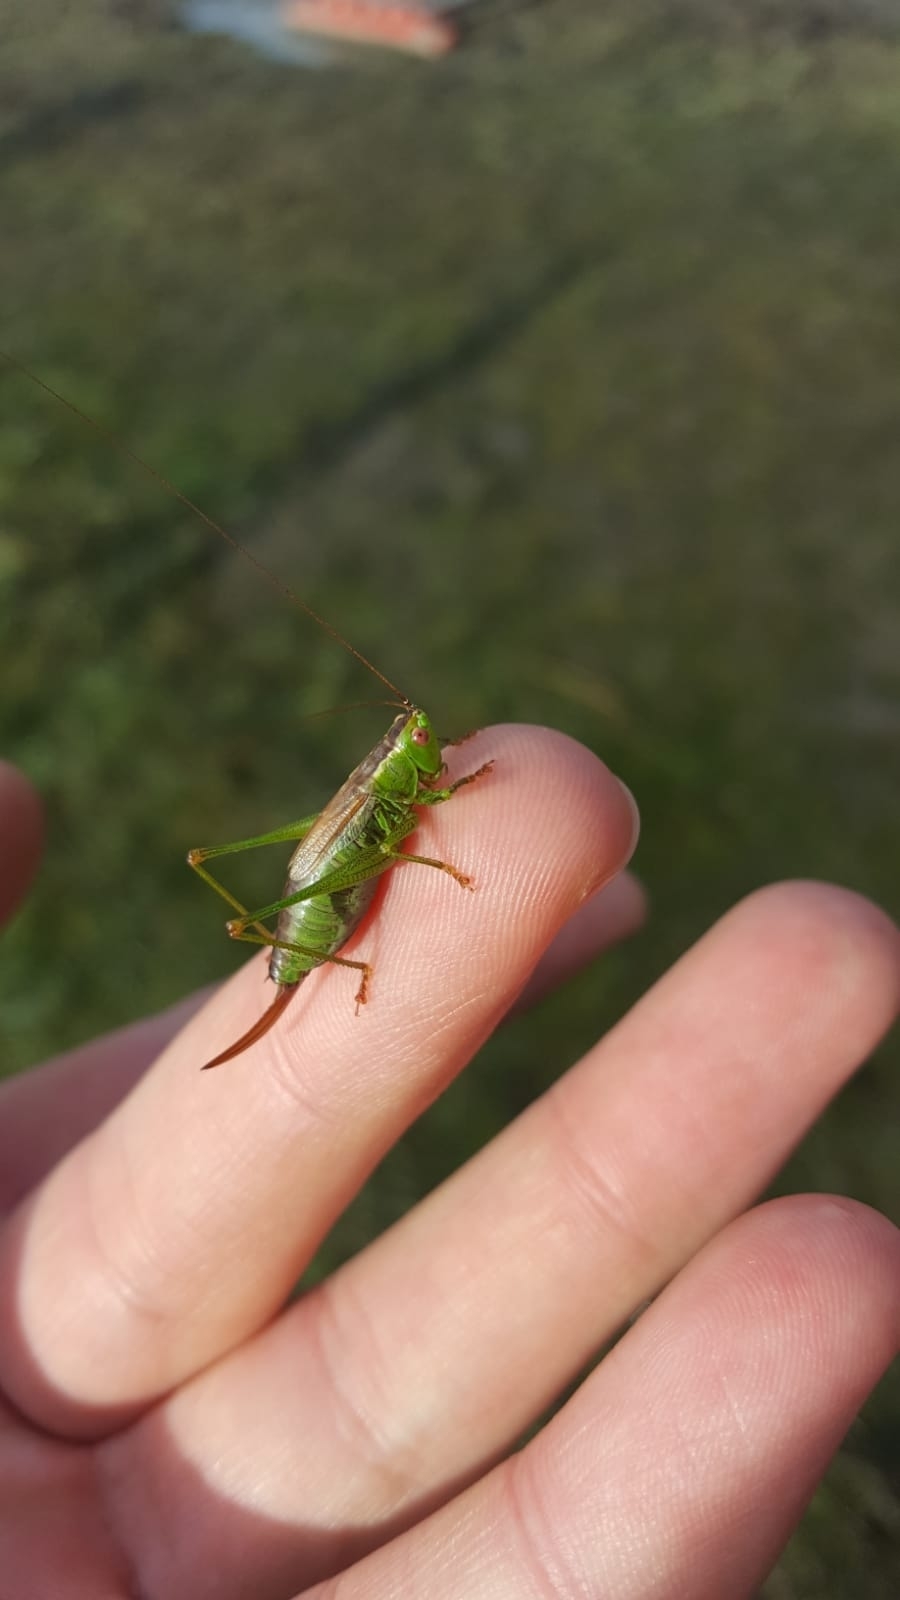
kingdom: Animalia
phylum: Arthropoda
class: Insecta
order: Orthoptera
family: Tettigoniidae
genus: Conocephalus
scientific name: Conocephalus dorsalis
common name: Short-winged conehead
